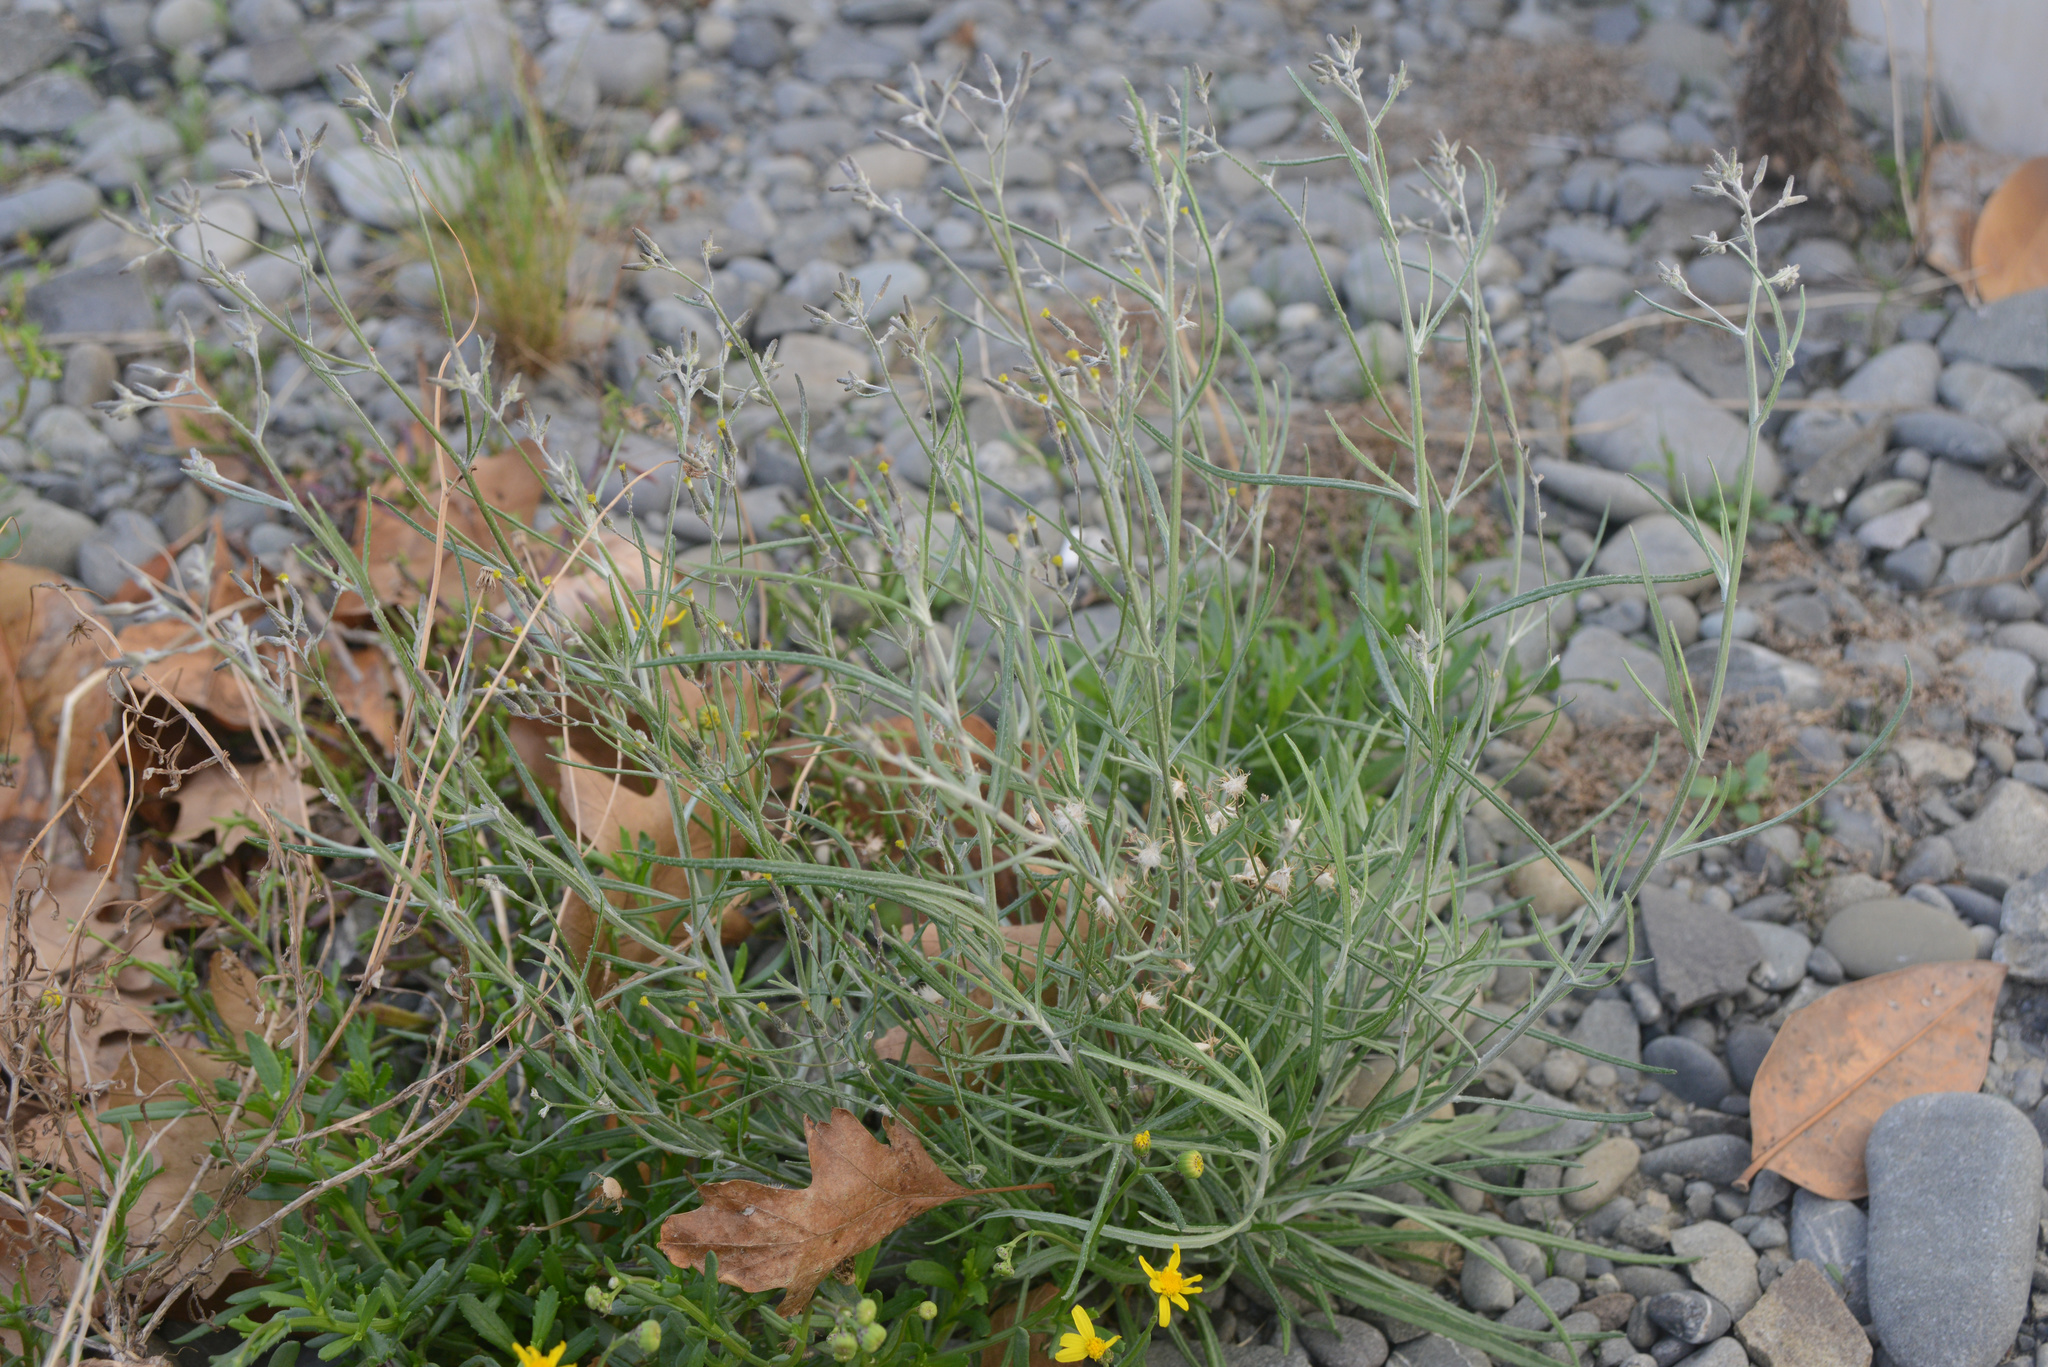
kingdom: Plantae
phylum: Tracheophyta
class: Magnoliopsida
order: Asterales
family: Asteraceae
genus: Senecio
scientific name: Senecio quadridentatus
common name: Cotton fireweed
